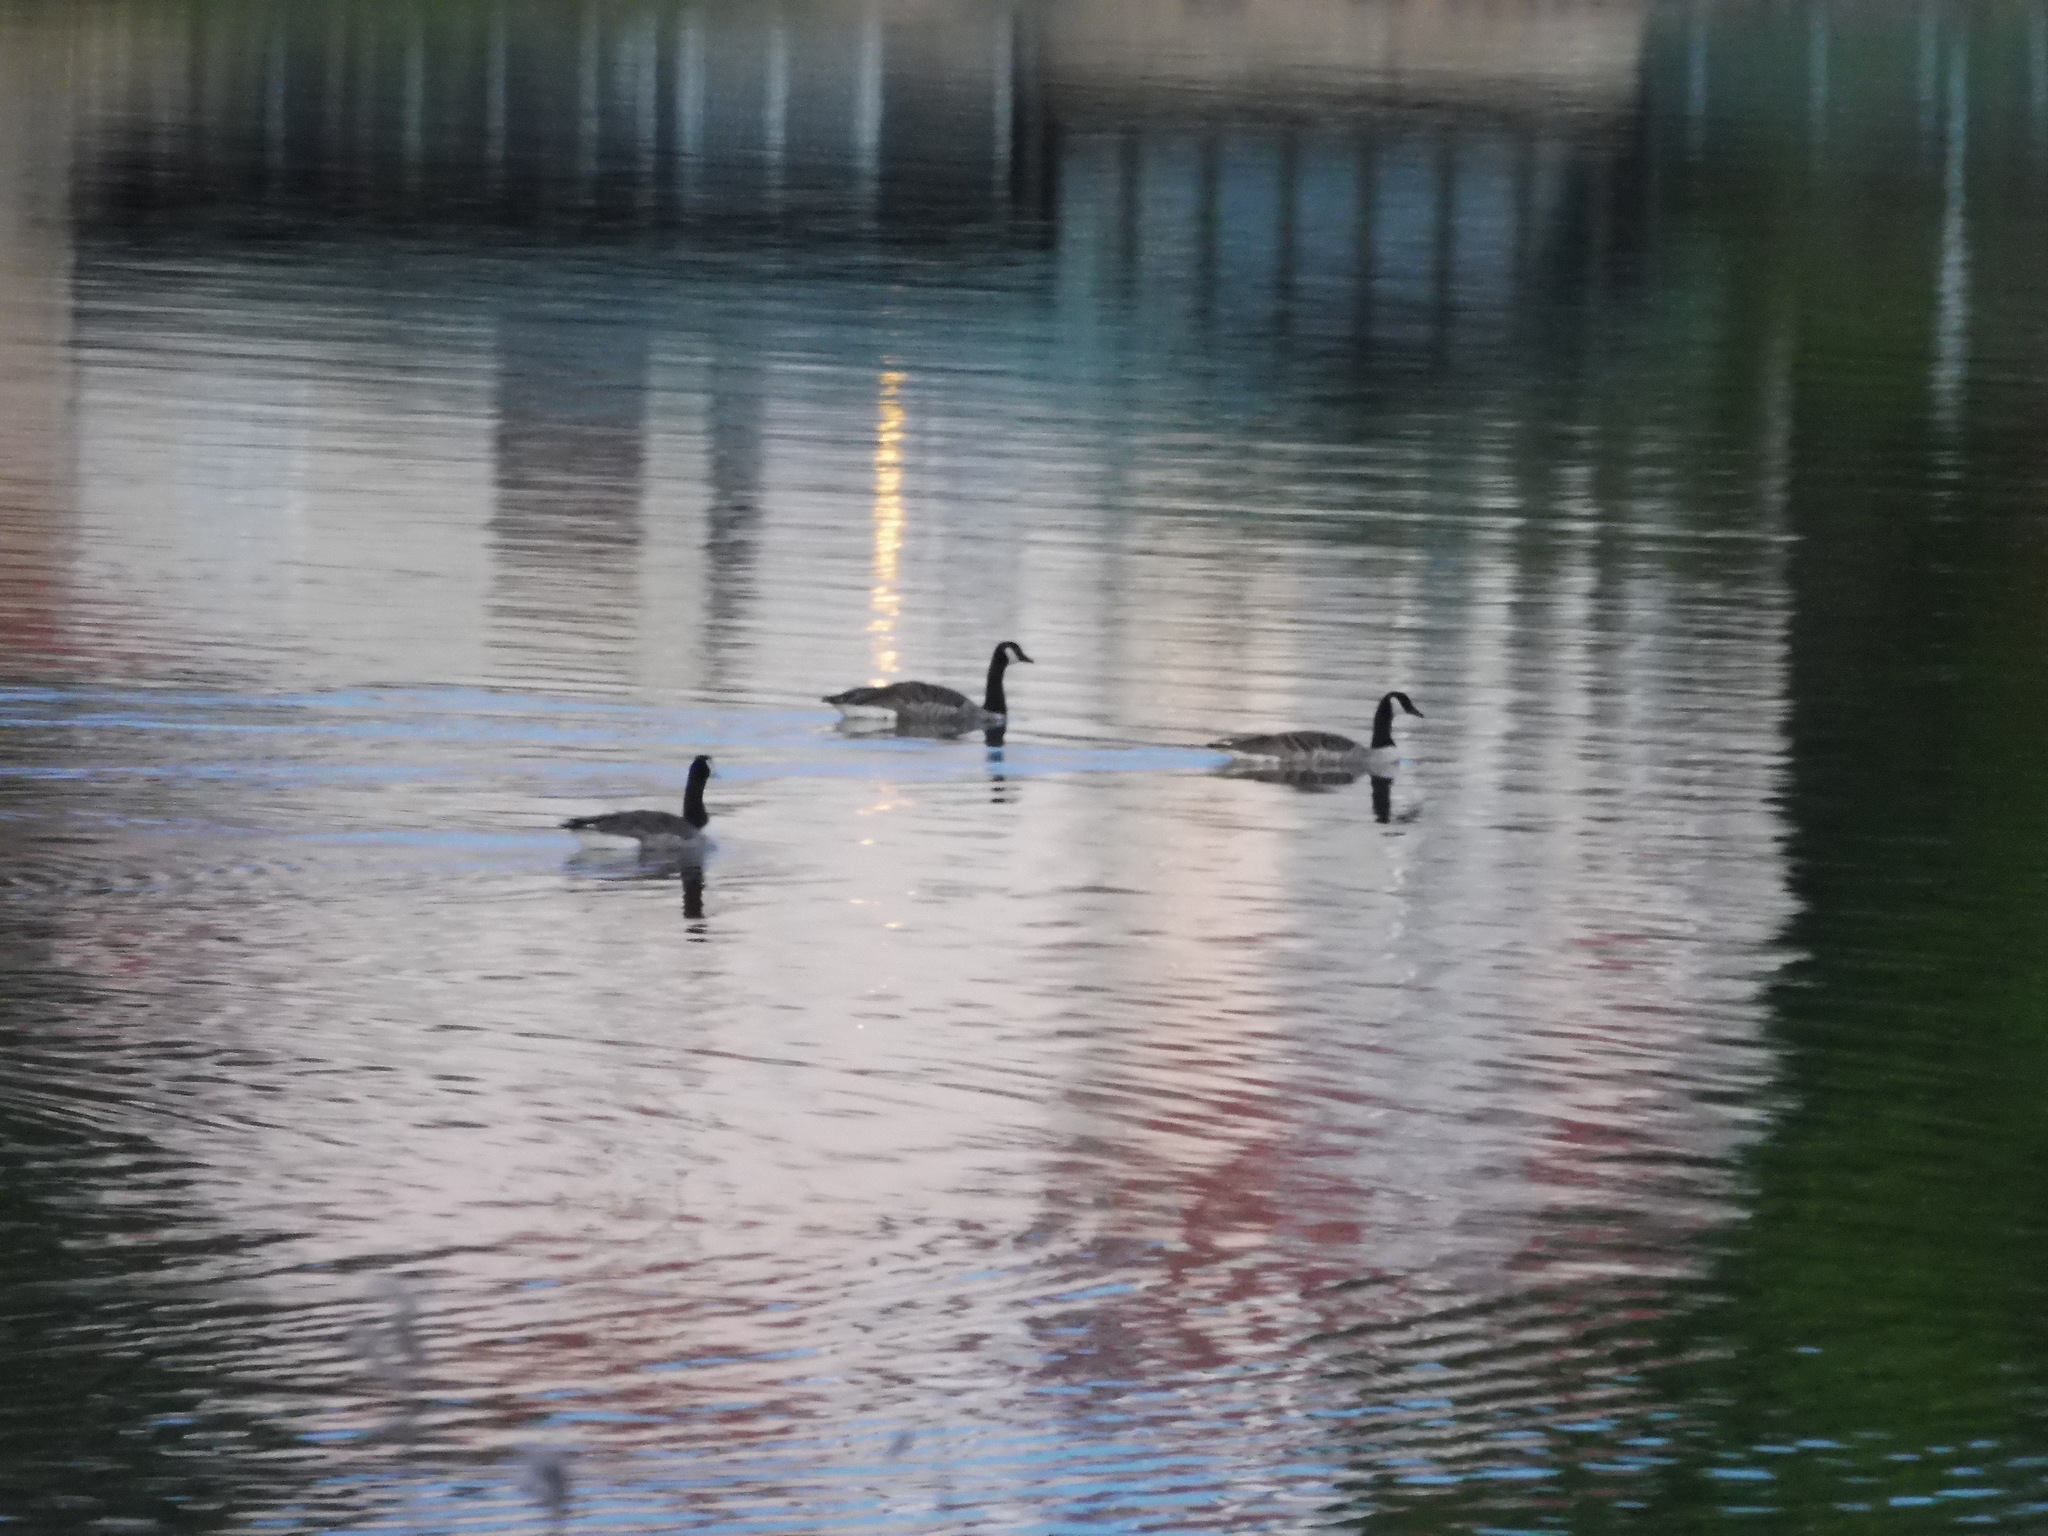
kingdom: Animalia
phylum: Chordata
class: Aves
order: Anseriformes
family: Anatidae
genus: Branta
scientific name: Branta canadensis
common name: Canada goose
